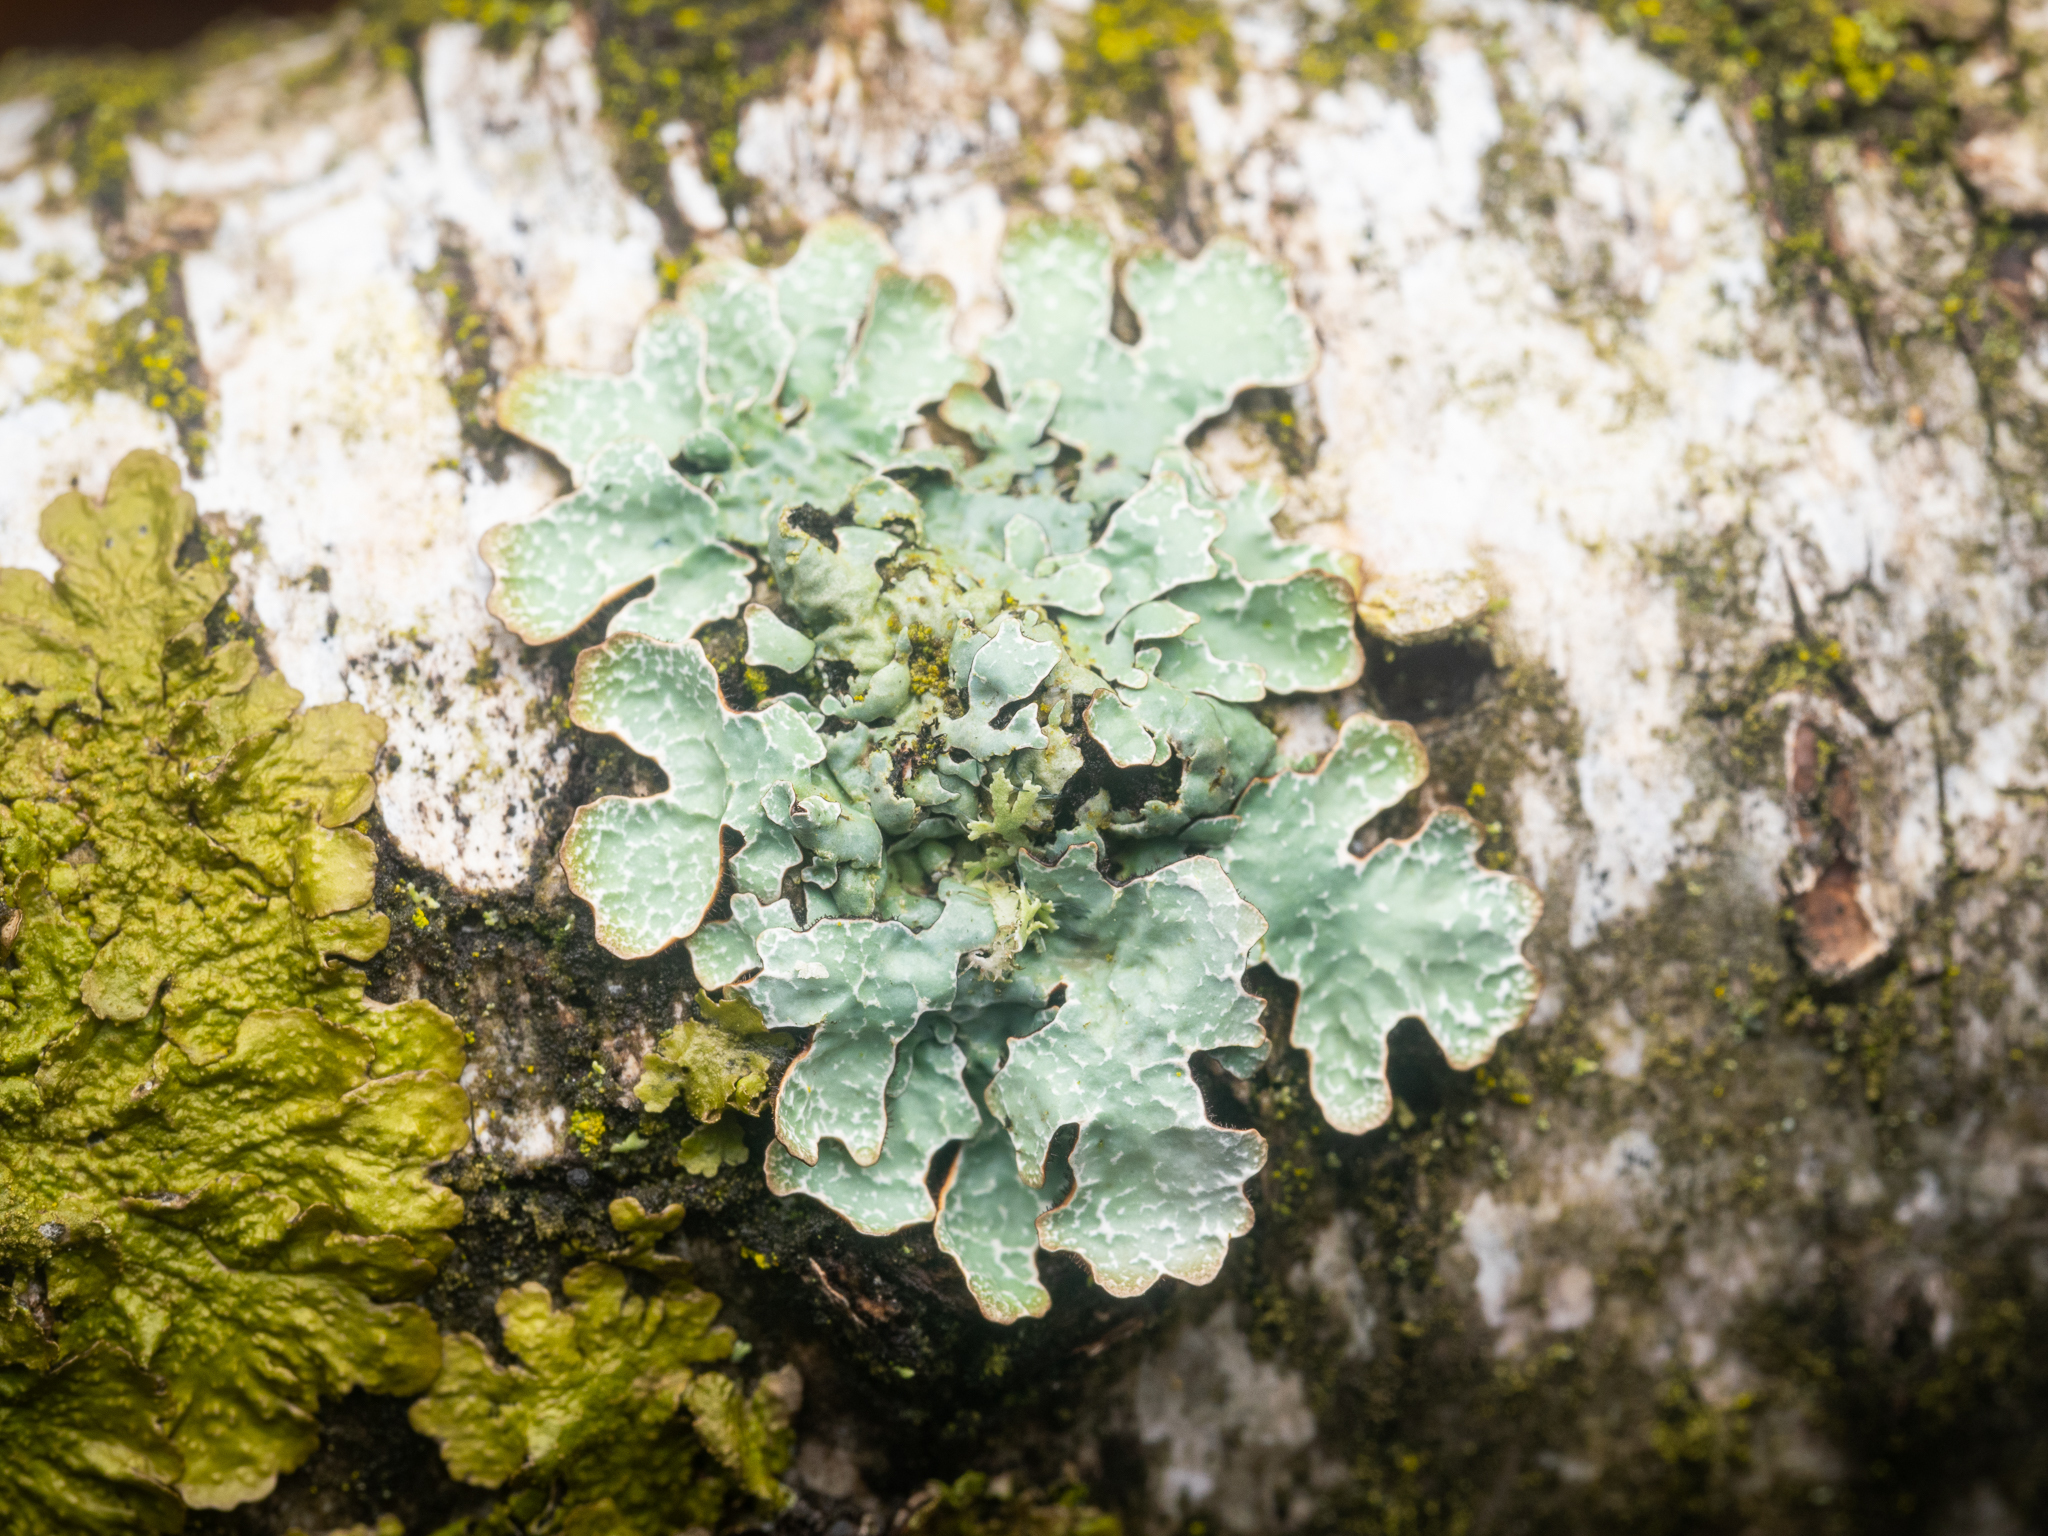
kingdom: Fungi
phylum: Ascomycota
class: Lecanoromycetes
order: Lecanorales
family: Parmeliaceae
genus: Parmelia
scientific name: Parmelia sulcata
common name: Netted shield lichen
